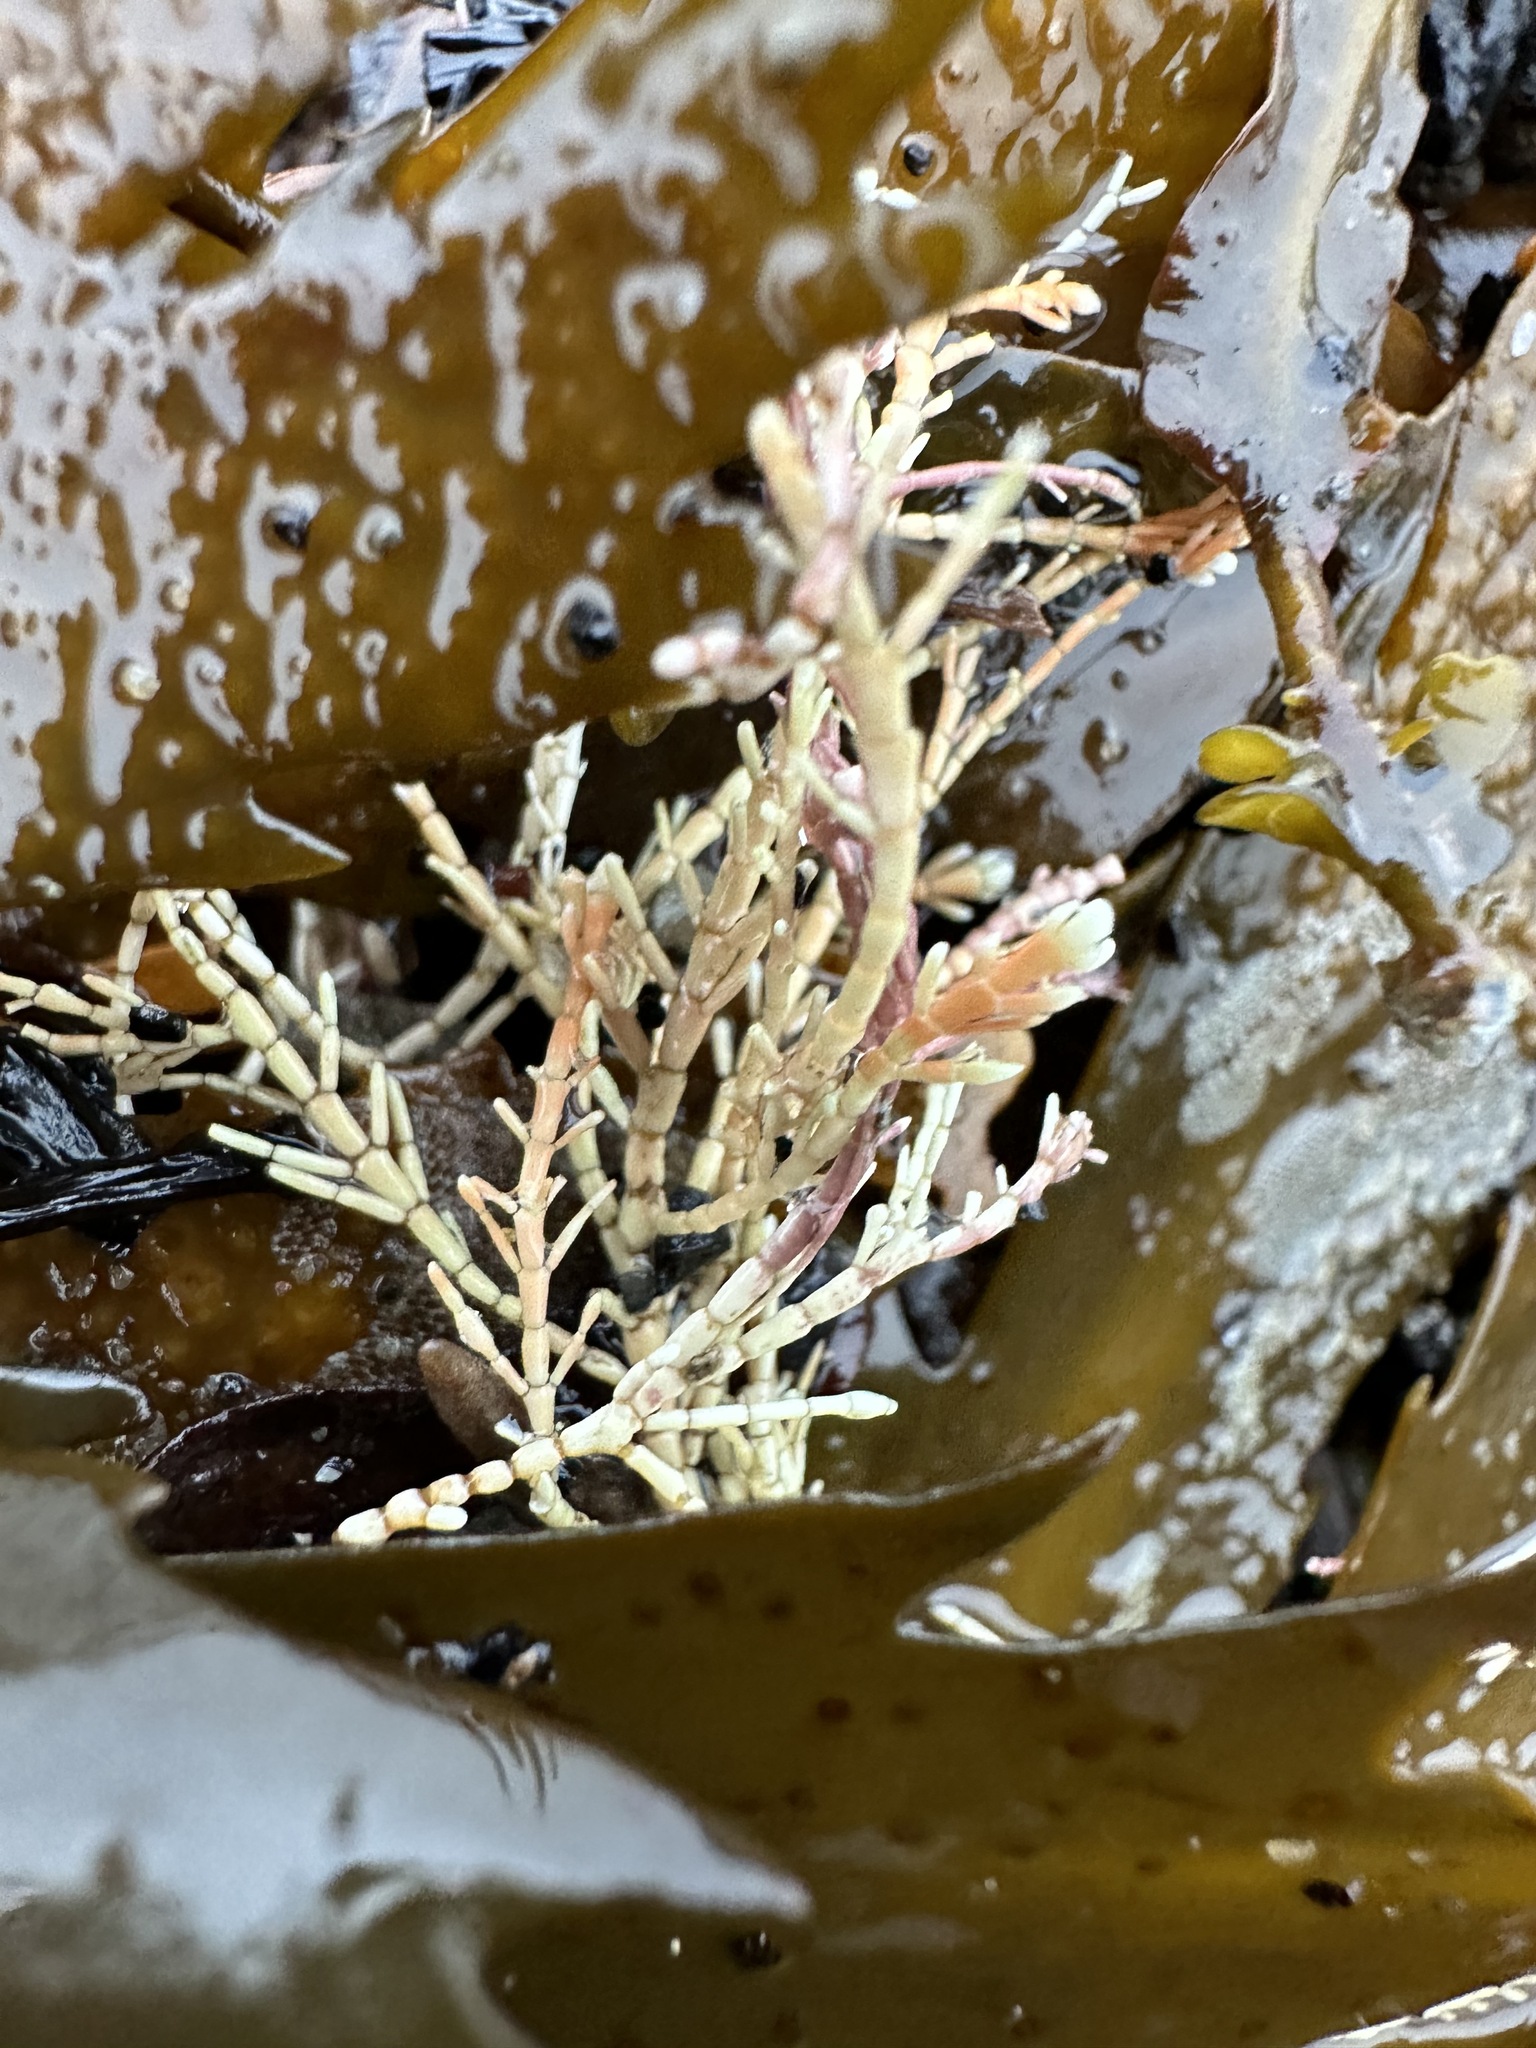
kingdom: Plantae
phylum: Rhodophyta
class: Florideophyceae
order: Corallinales
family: Corallinaceae
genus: Corallina
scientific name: Corallina officinalis
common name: Coral weed
